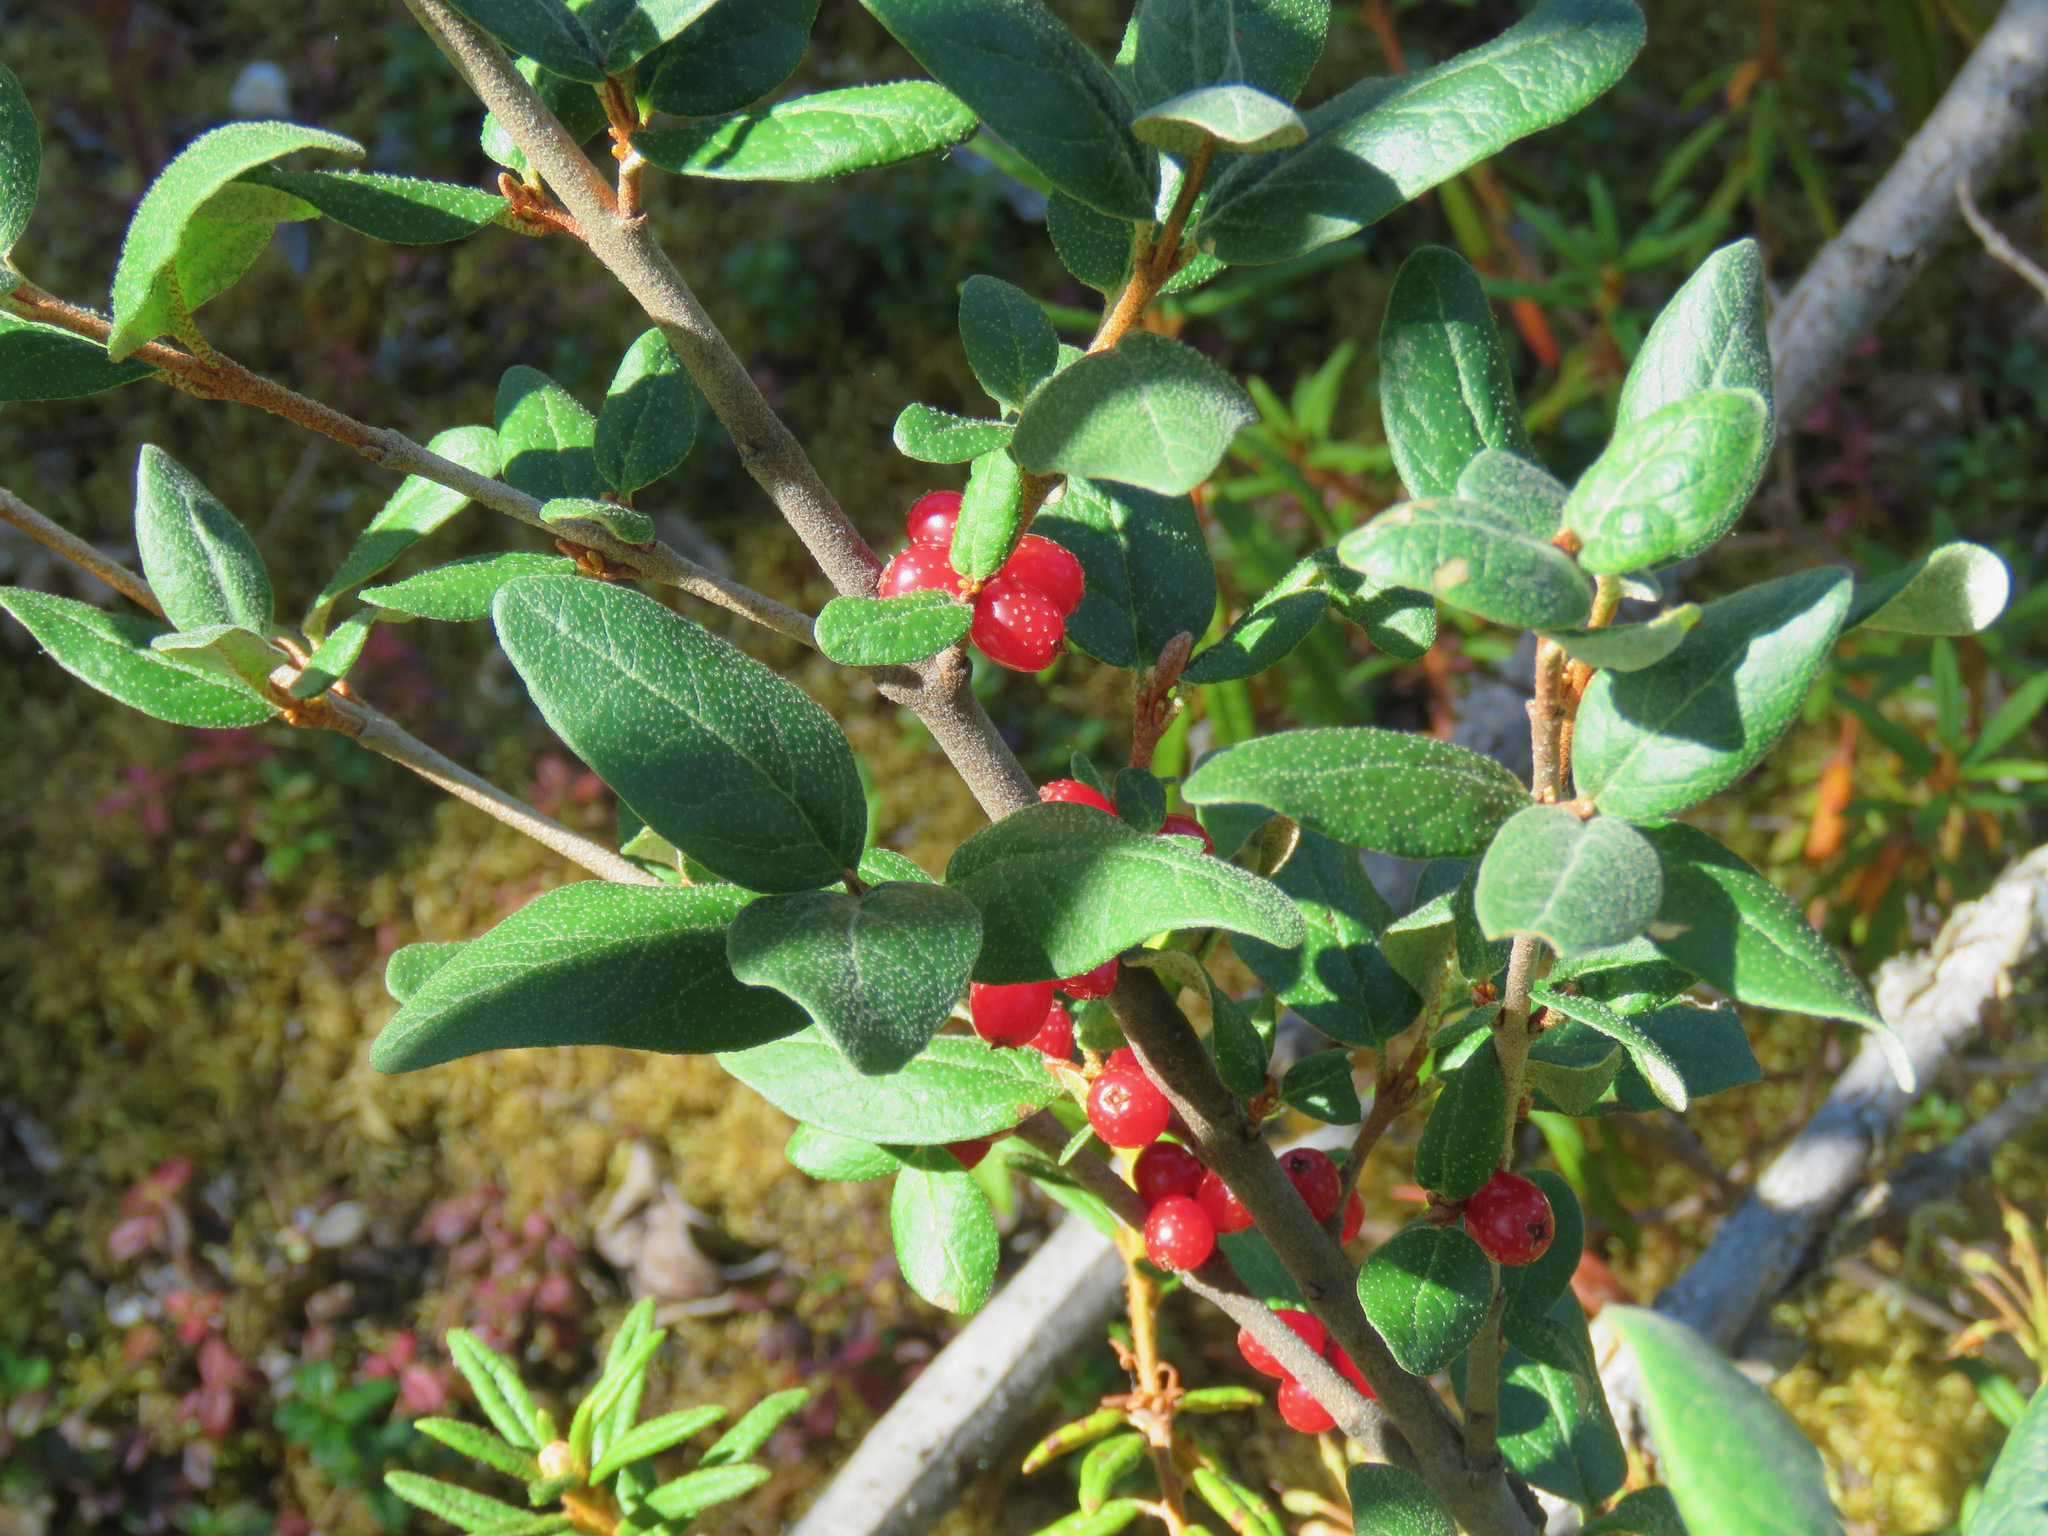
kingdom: Plantae
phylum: Tracheophyta
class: Magnoliopsida
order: Rosales
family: Elaeagnaceae
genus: Shepherdia
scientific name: Shepherdia canadensis
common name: Soapberry
